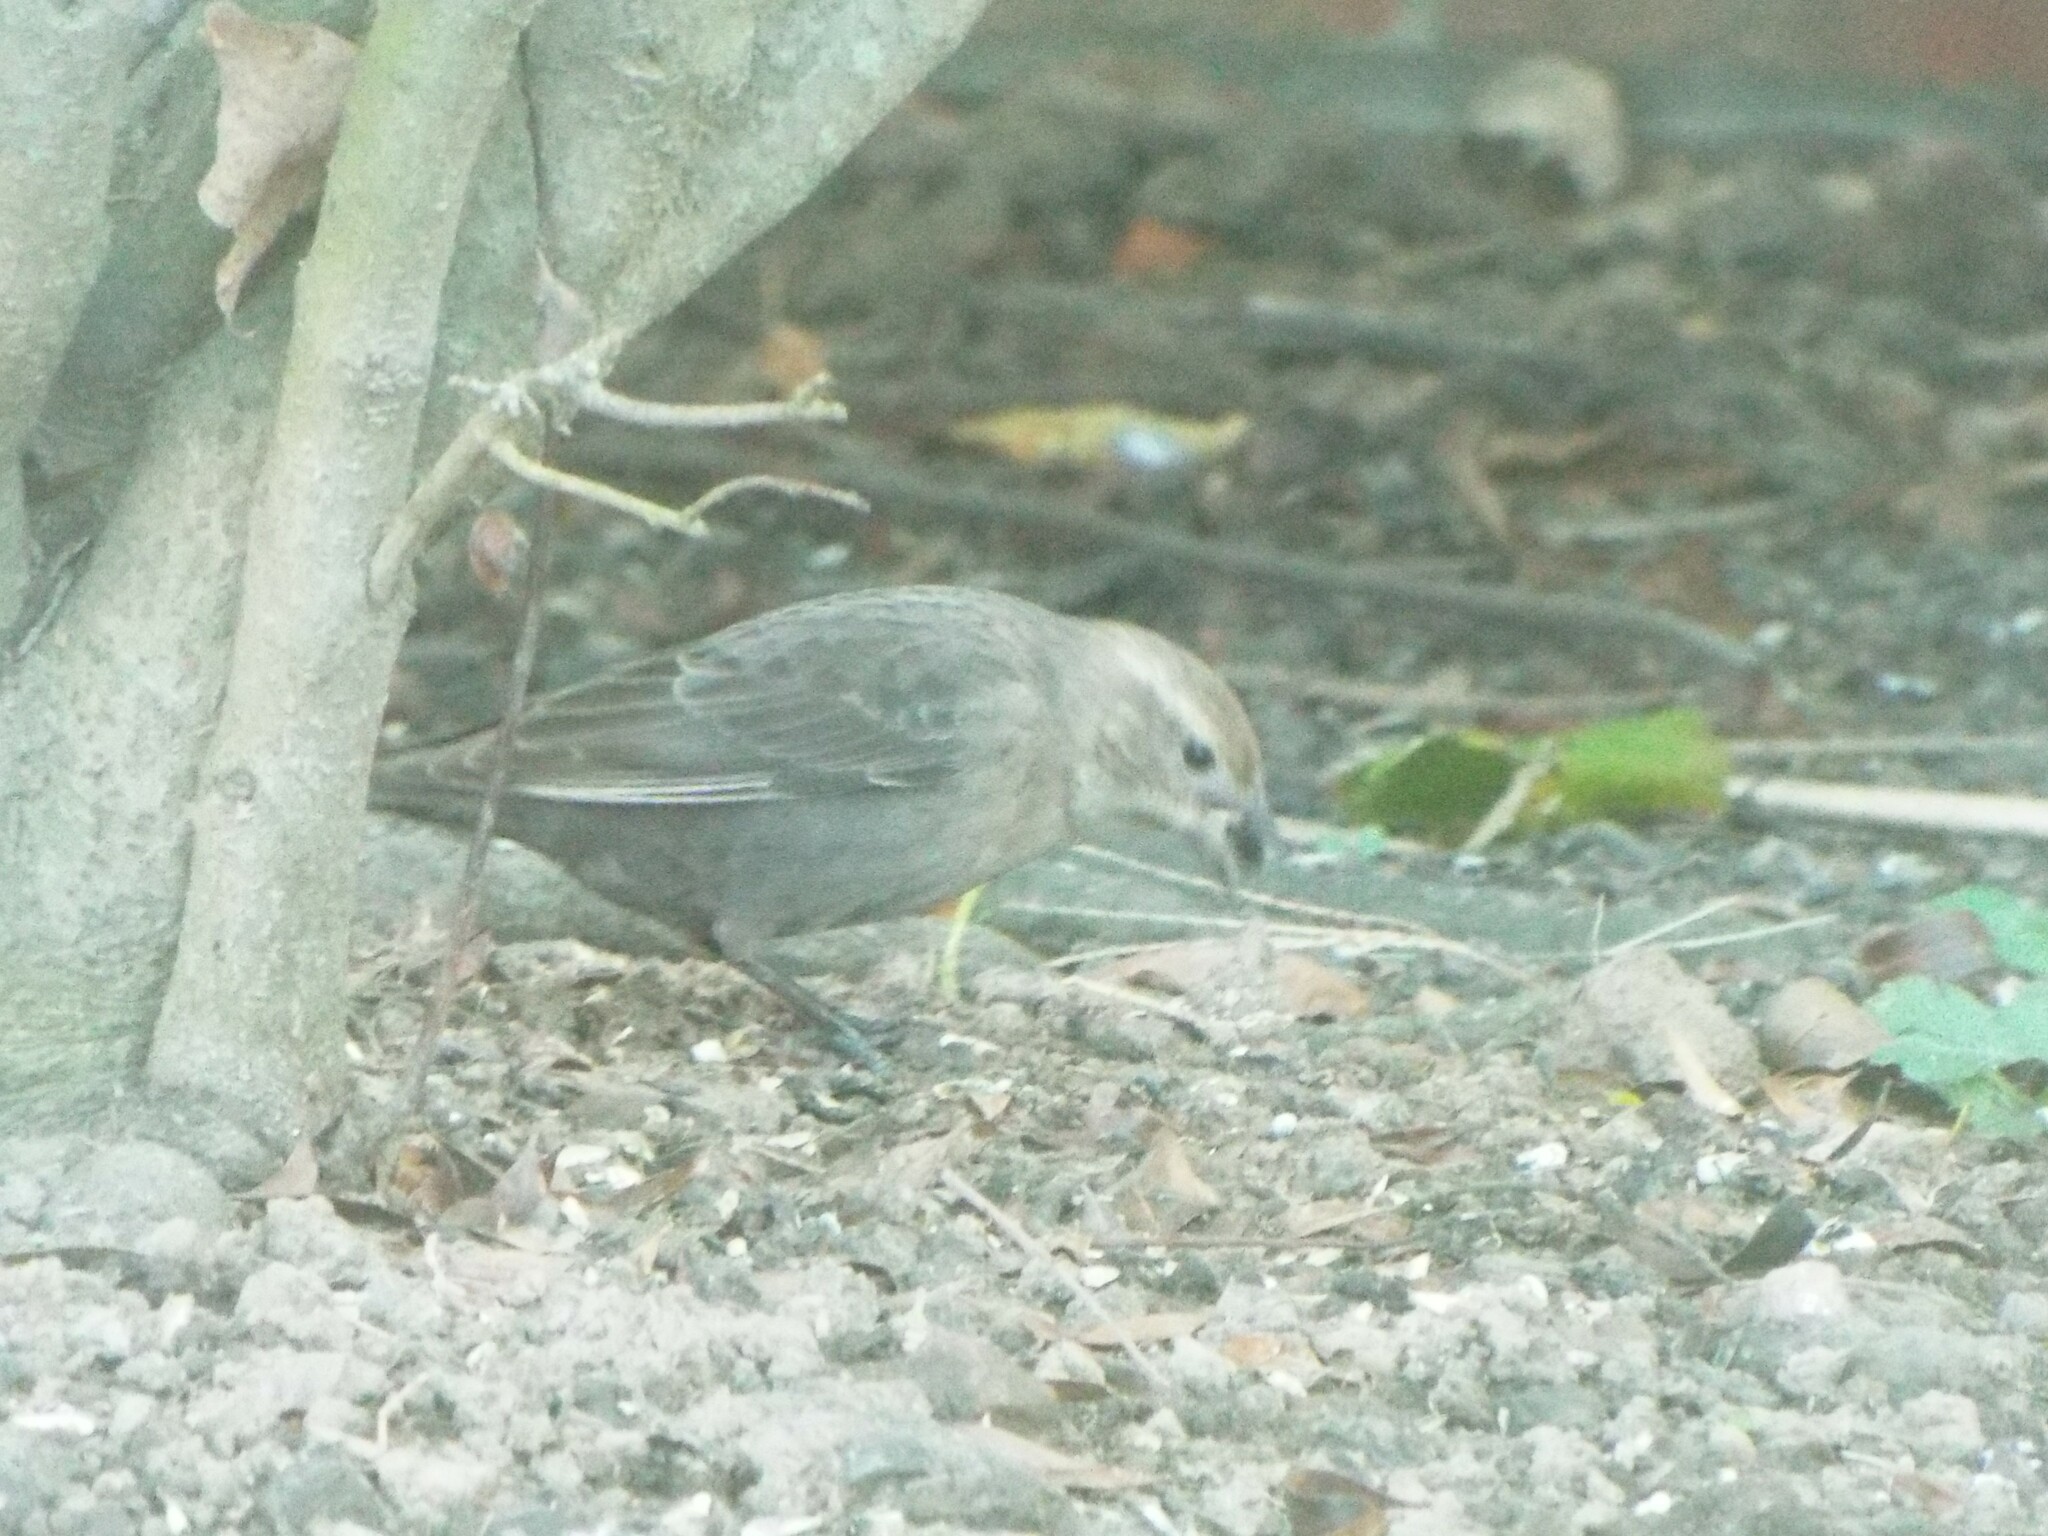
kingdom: Animalia
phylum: Chordata
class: Aves
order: Passeriformes
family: Icteridae
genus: Molothrus
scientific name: Molothrus ater
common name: Brown-headed cowbird
